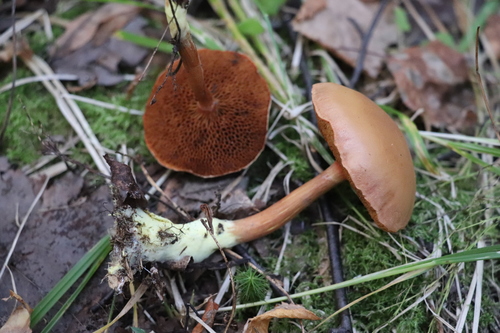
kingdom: Fungi
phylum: Basidiomycota
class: Agaricomycetes
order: Boletales
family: Boletaceae
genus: Chalciporus
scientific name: Chalciporus piperatus
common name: Peppery bolete
